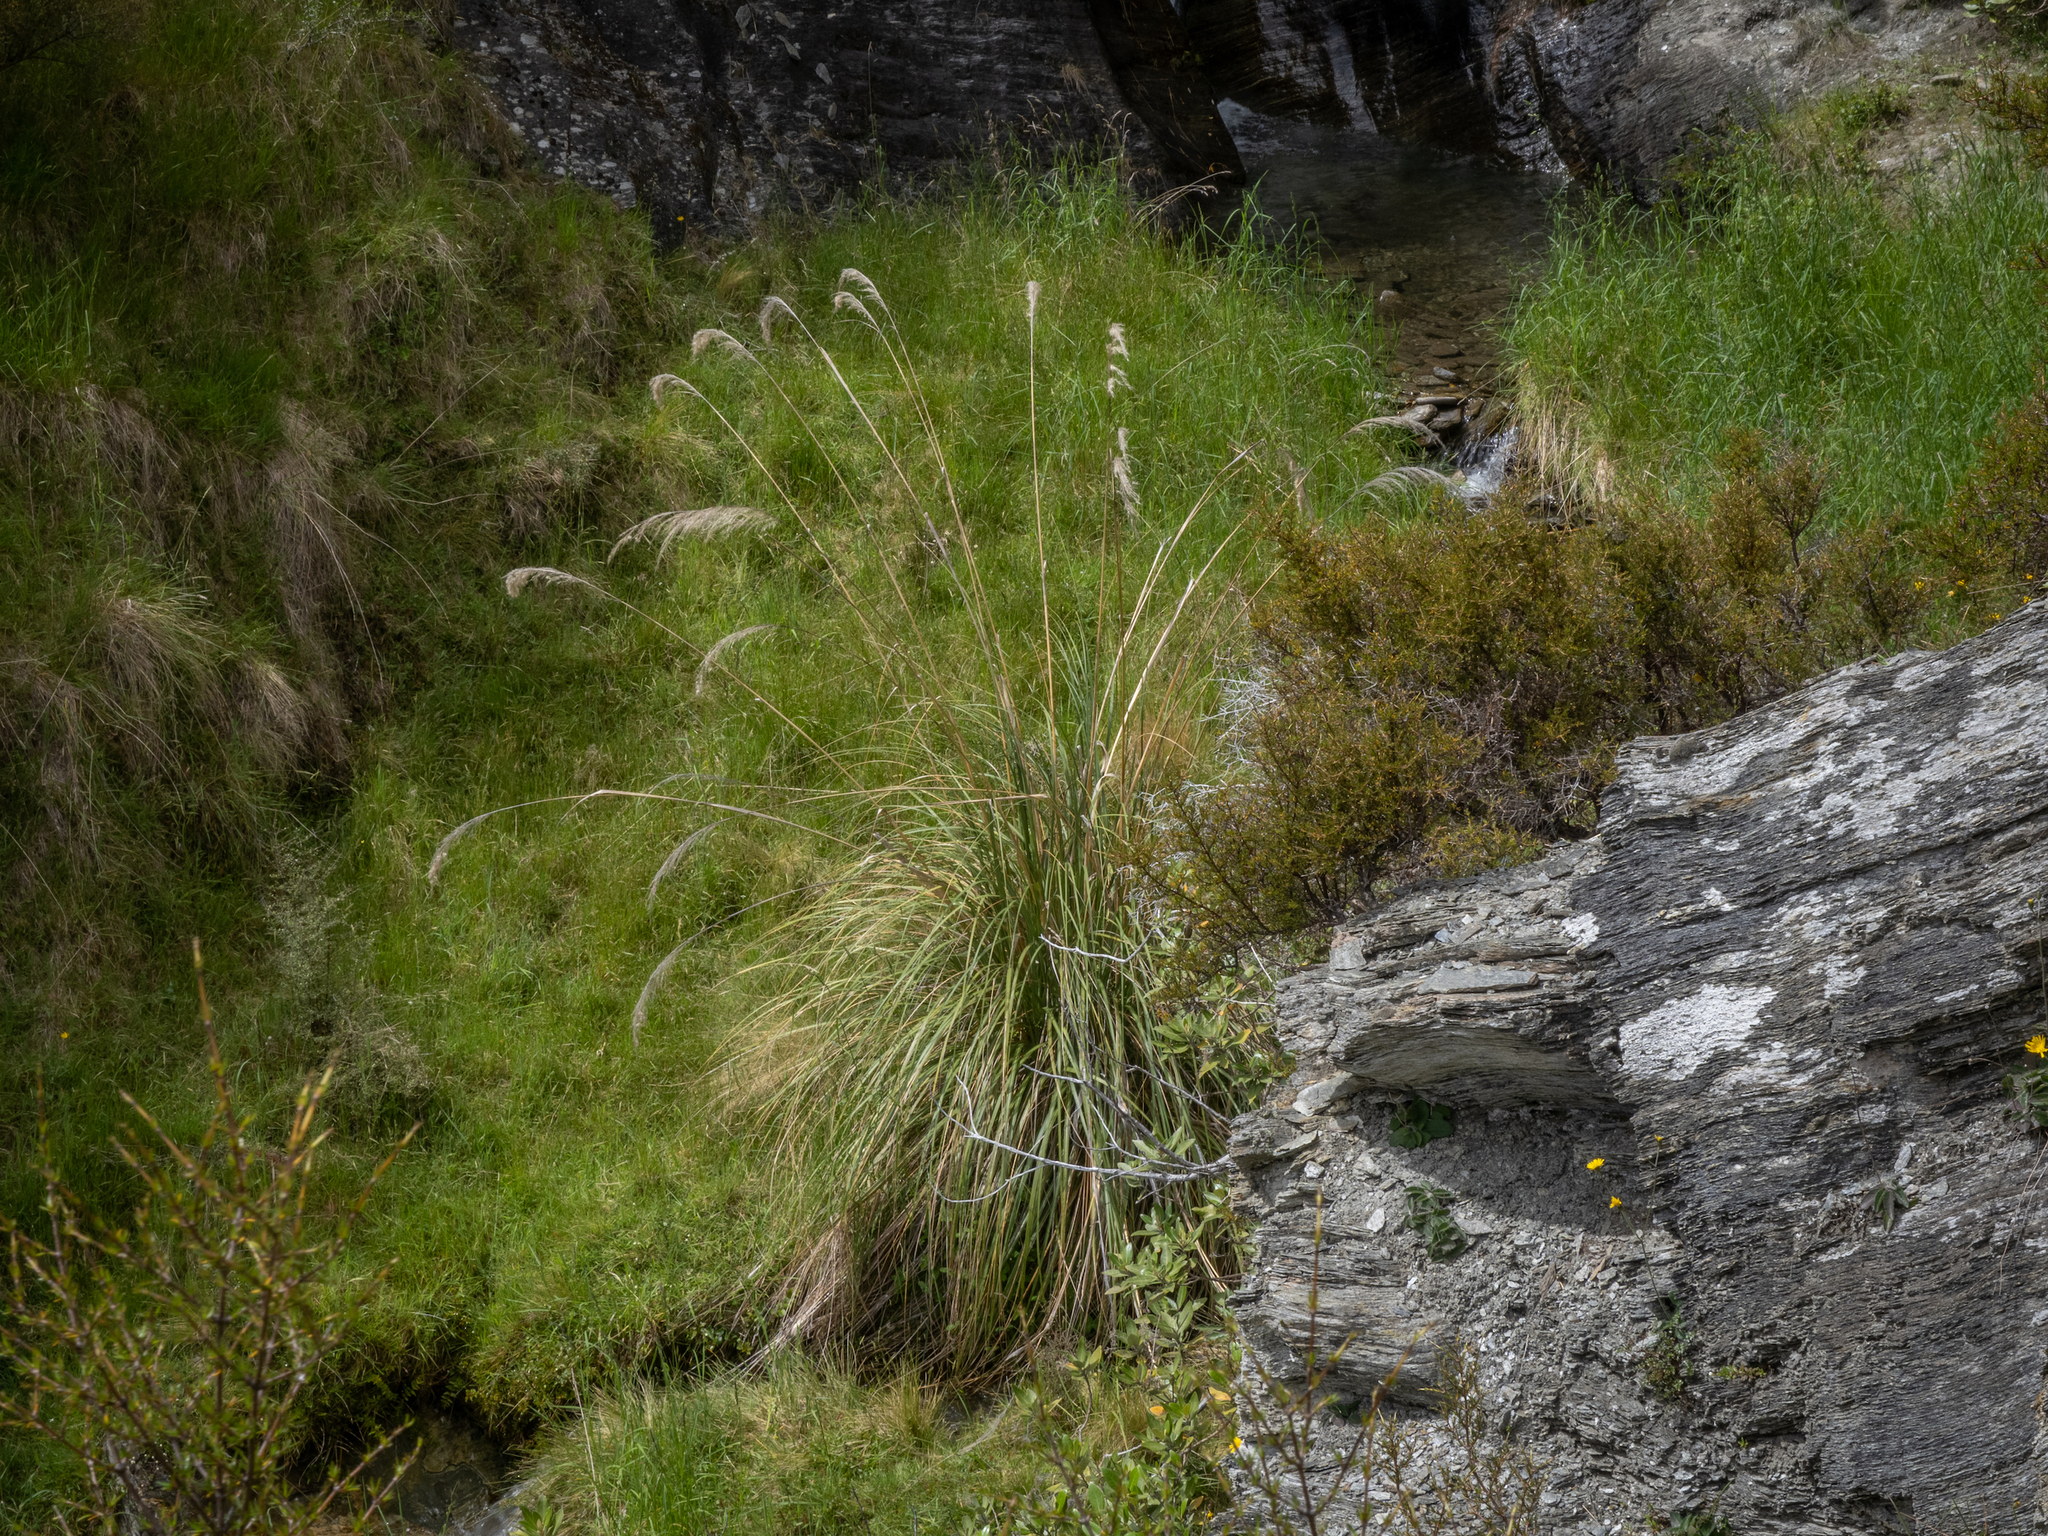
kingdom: Plantae
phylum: Tracheophyta
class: Liliopsida
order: Poales
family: Poaceae
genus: Austroderia
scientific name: Austroderia richardii
